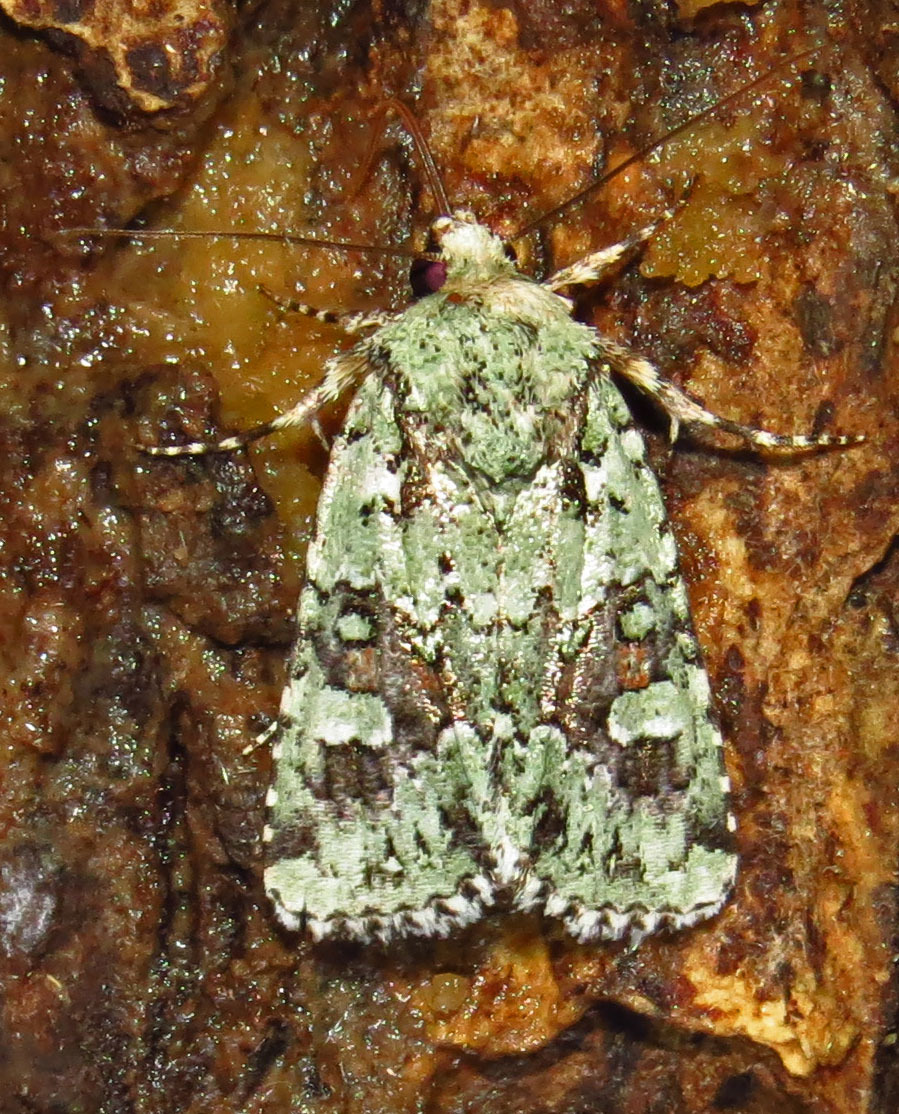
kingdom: Animalia
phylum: Arthropoda
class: Insecta
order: Lepidoptera
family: Noctuidae
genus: Lacinipolia
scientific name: Lacinipolia laudabilis
